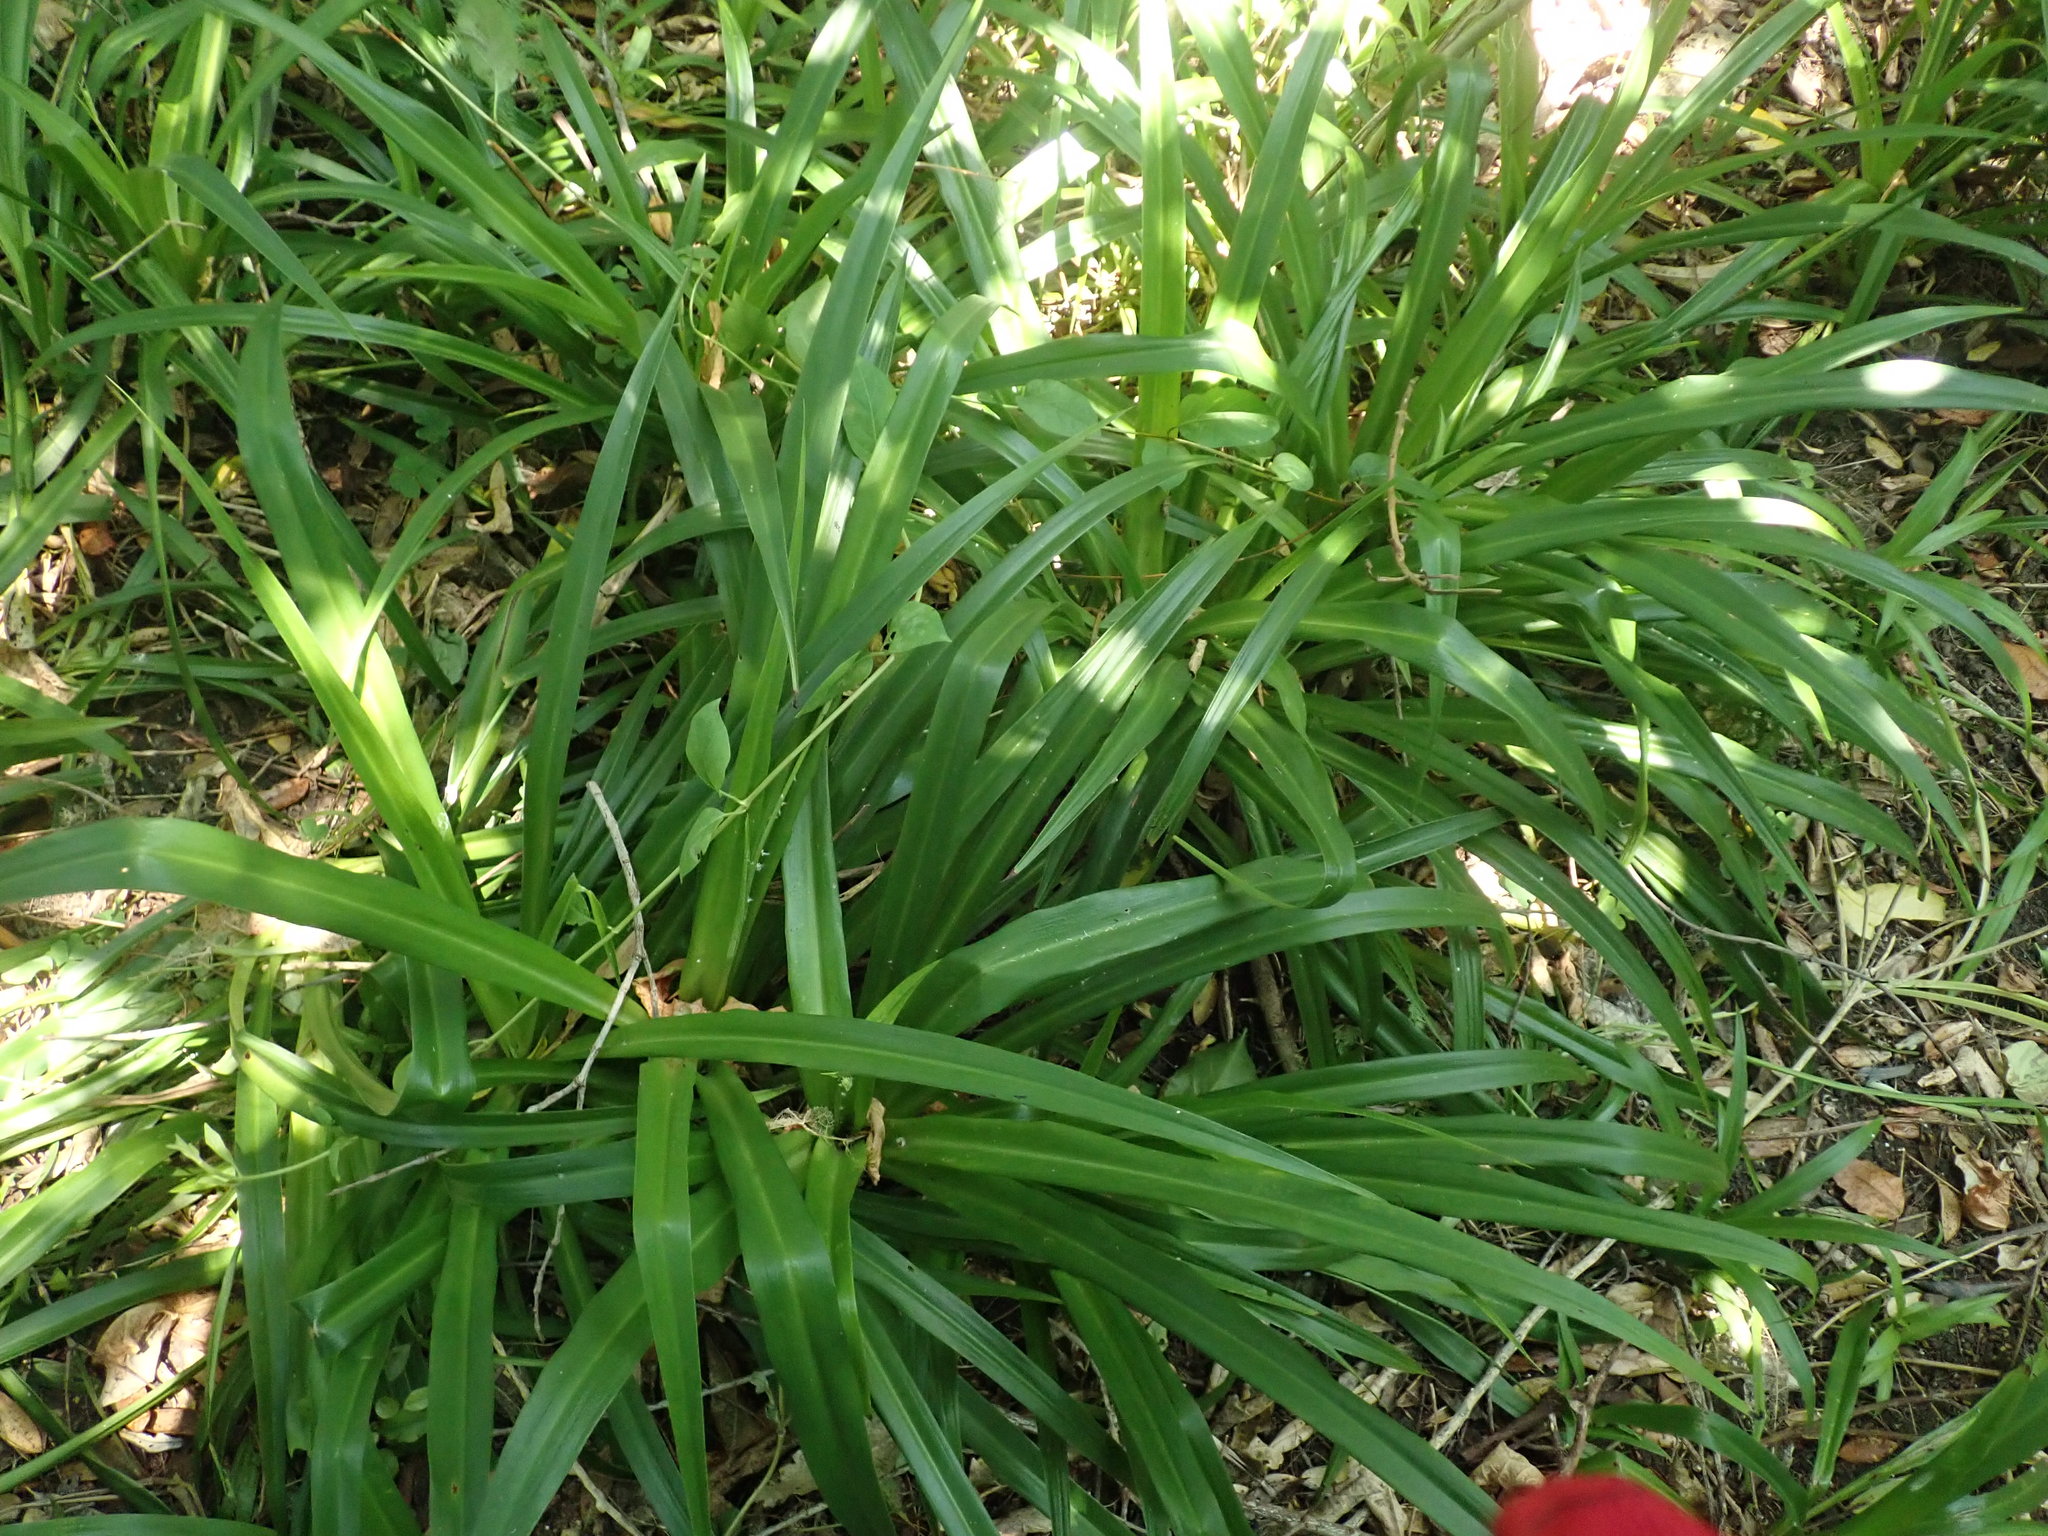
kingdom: Plantae
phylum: Tracheophyta
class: Magnoliopsida
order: Dipsacales
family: Caprifoliaceae
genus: Lonicera
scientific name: Lonicera japonica
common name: Japanese honeysuckle
